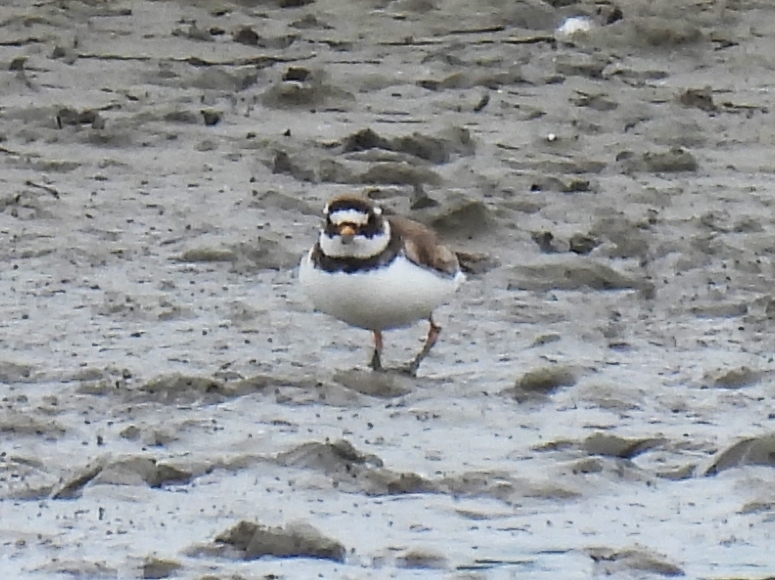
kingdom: Animalia
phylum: Chordata
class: Aves
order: Charadriiformes
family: Charadriidae
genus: Charadrius
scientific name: Charadrius hiaticula
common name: Common ringed plover
